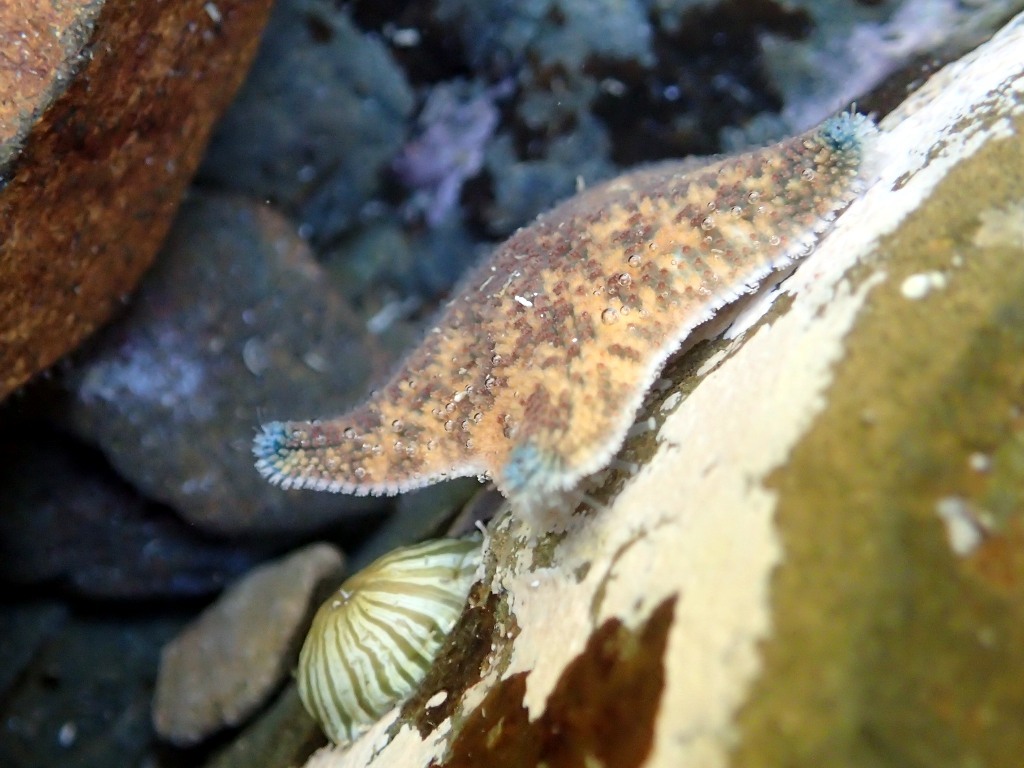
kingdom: Animalia
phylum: Echinodermata
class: Asteroidea
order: Valvatida
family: Asterinidae
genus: Patiriella
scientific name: Patiriella regularis
